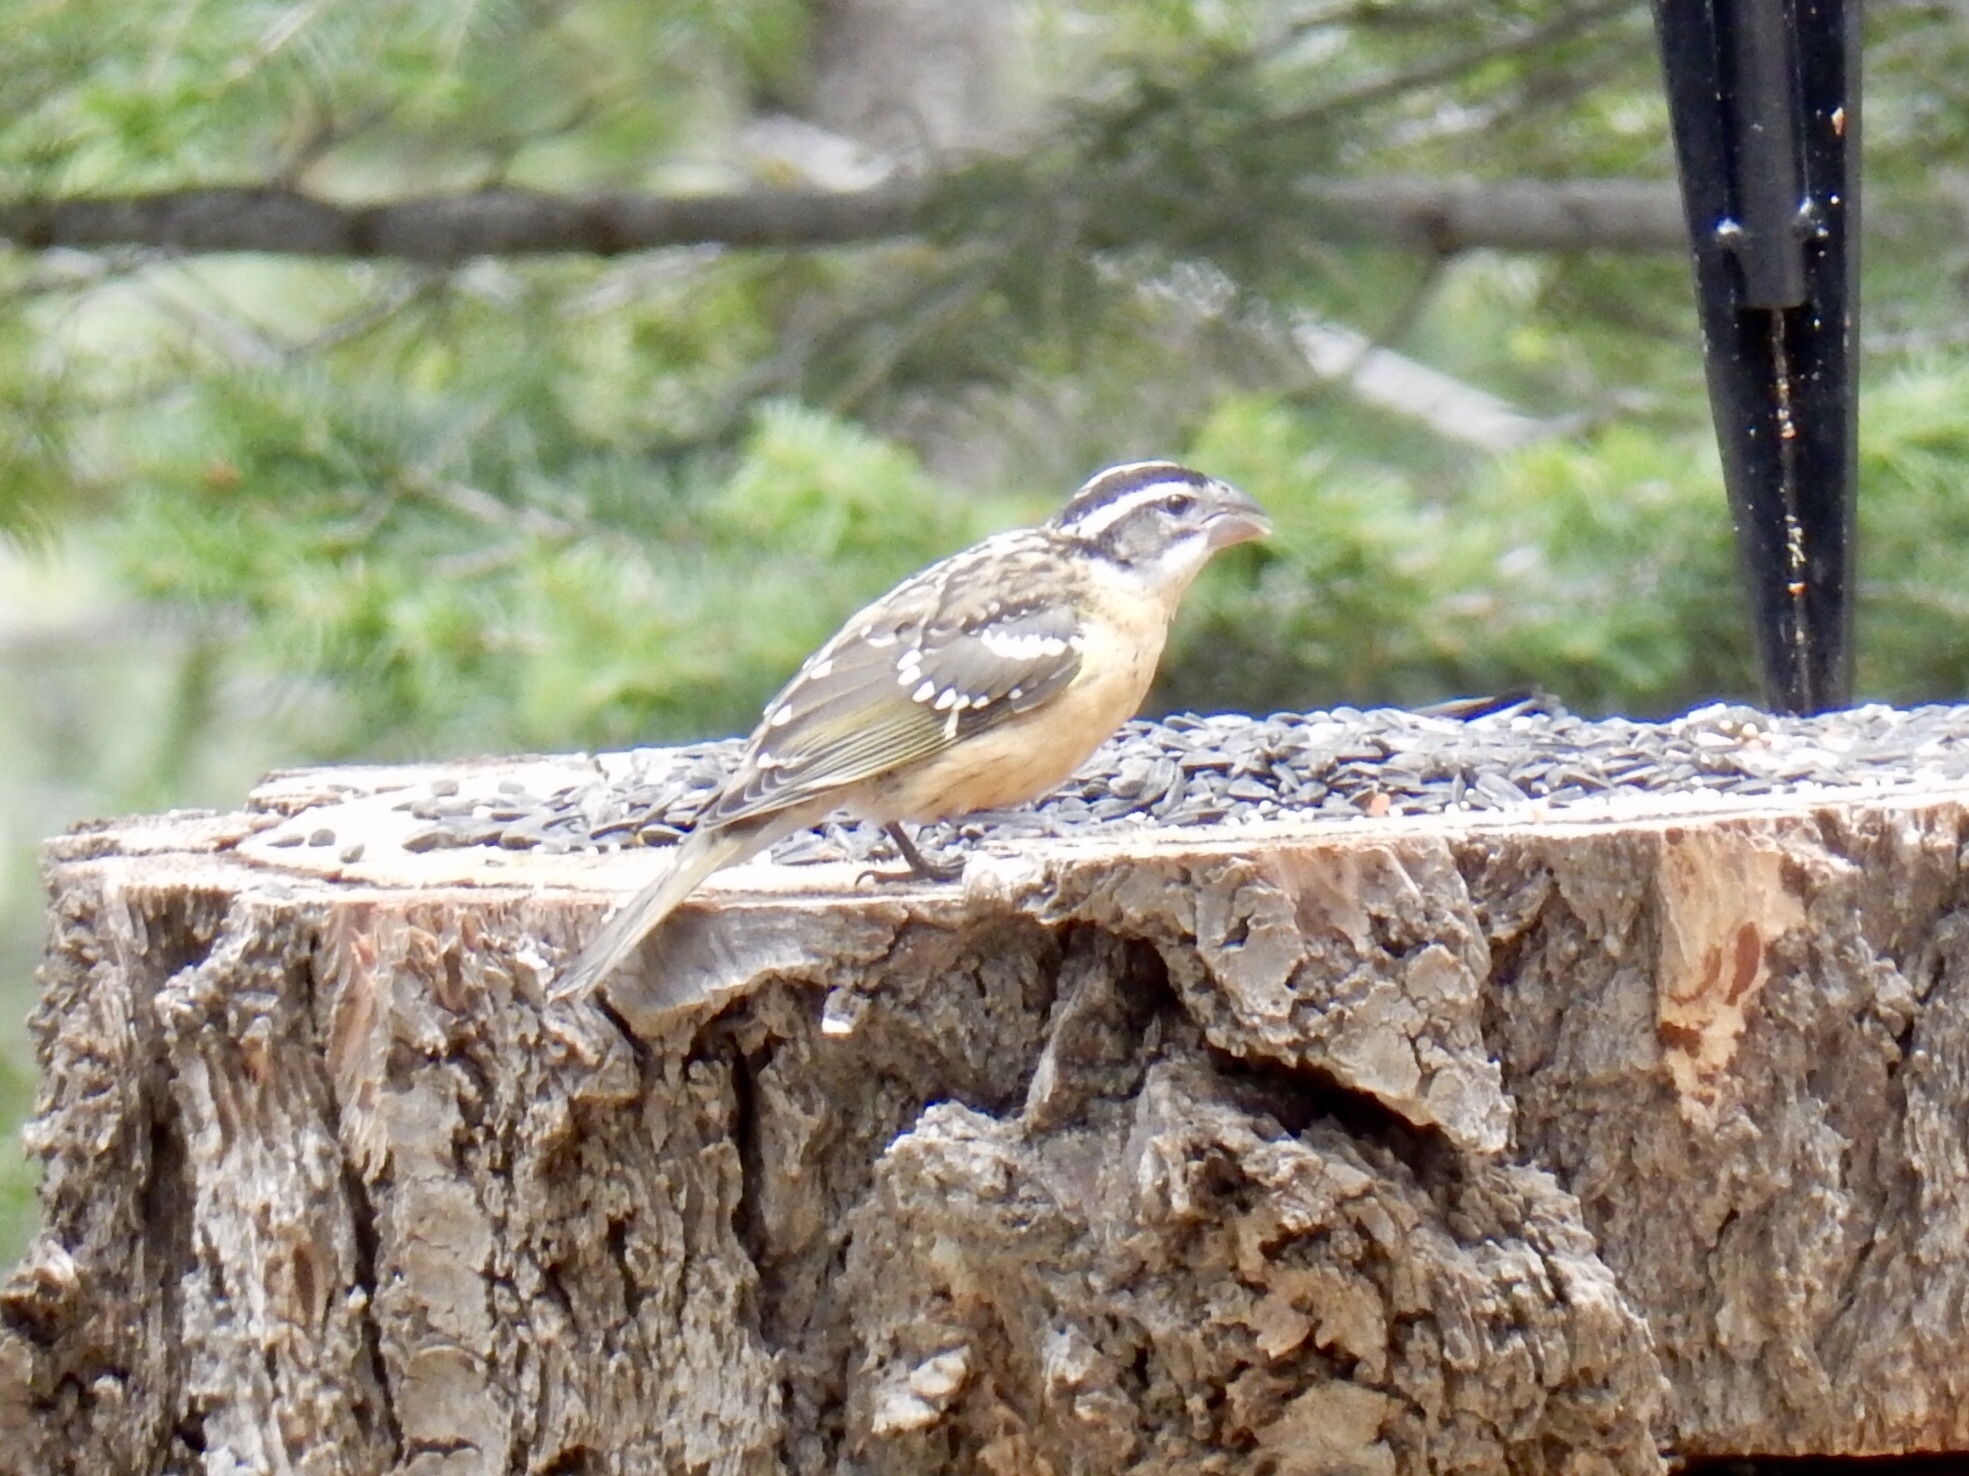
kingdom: Animalia
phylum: Chordata
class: Aves
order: Passeriformes
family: Cardinalidae
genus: Pheucticus
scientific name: Pheucticus melanocephalus
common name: Black-headed grosbeak
